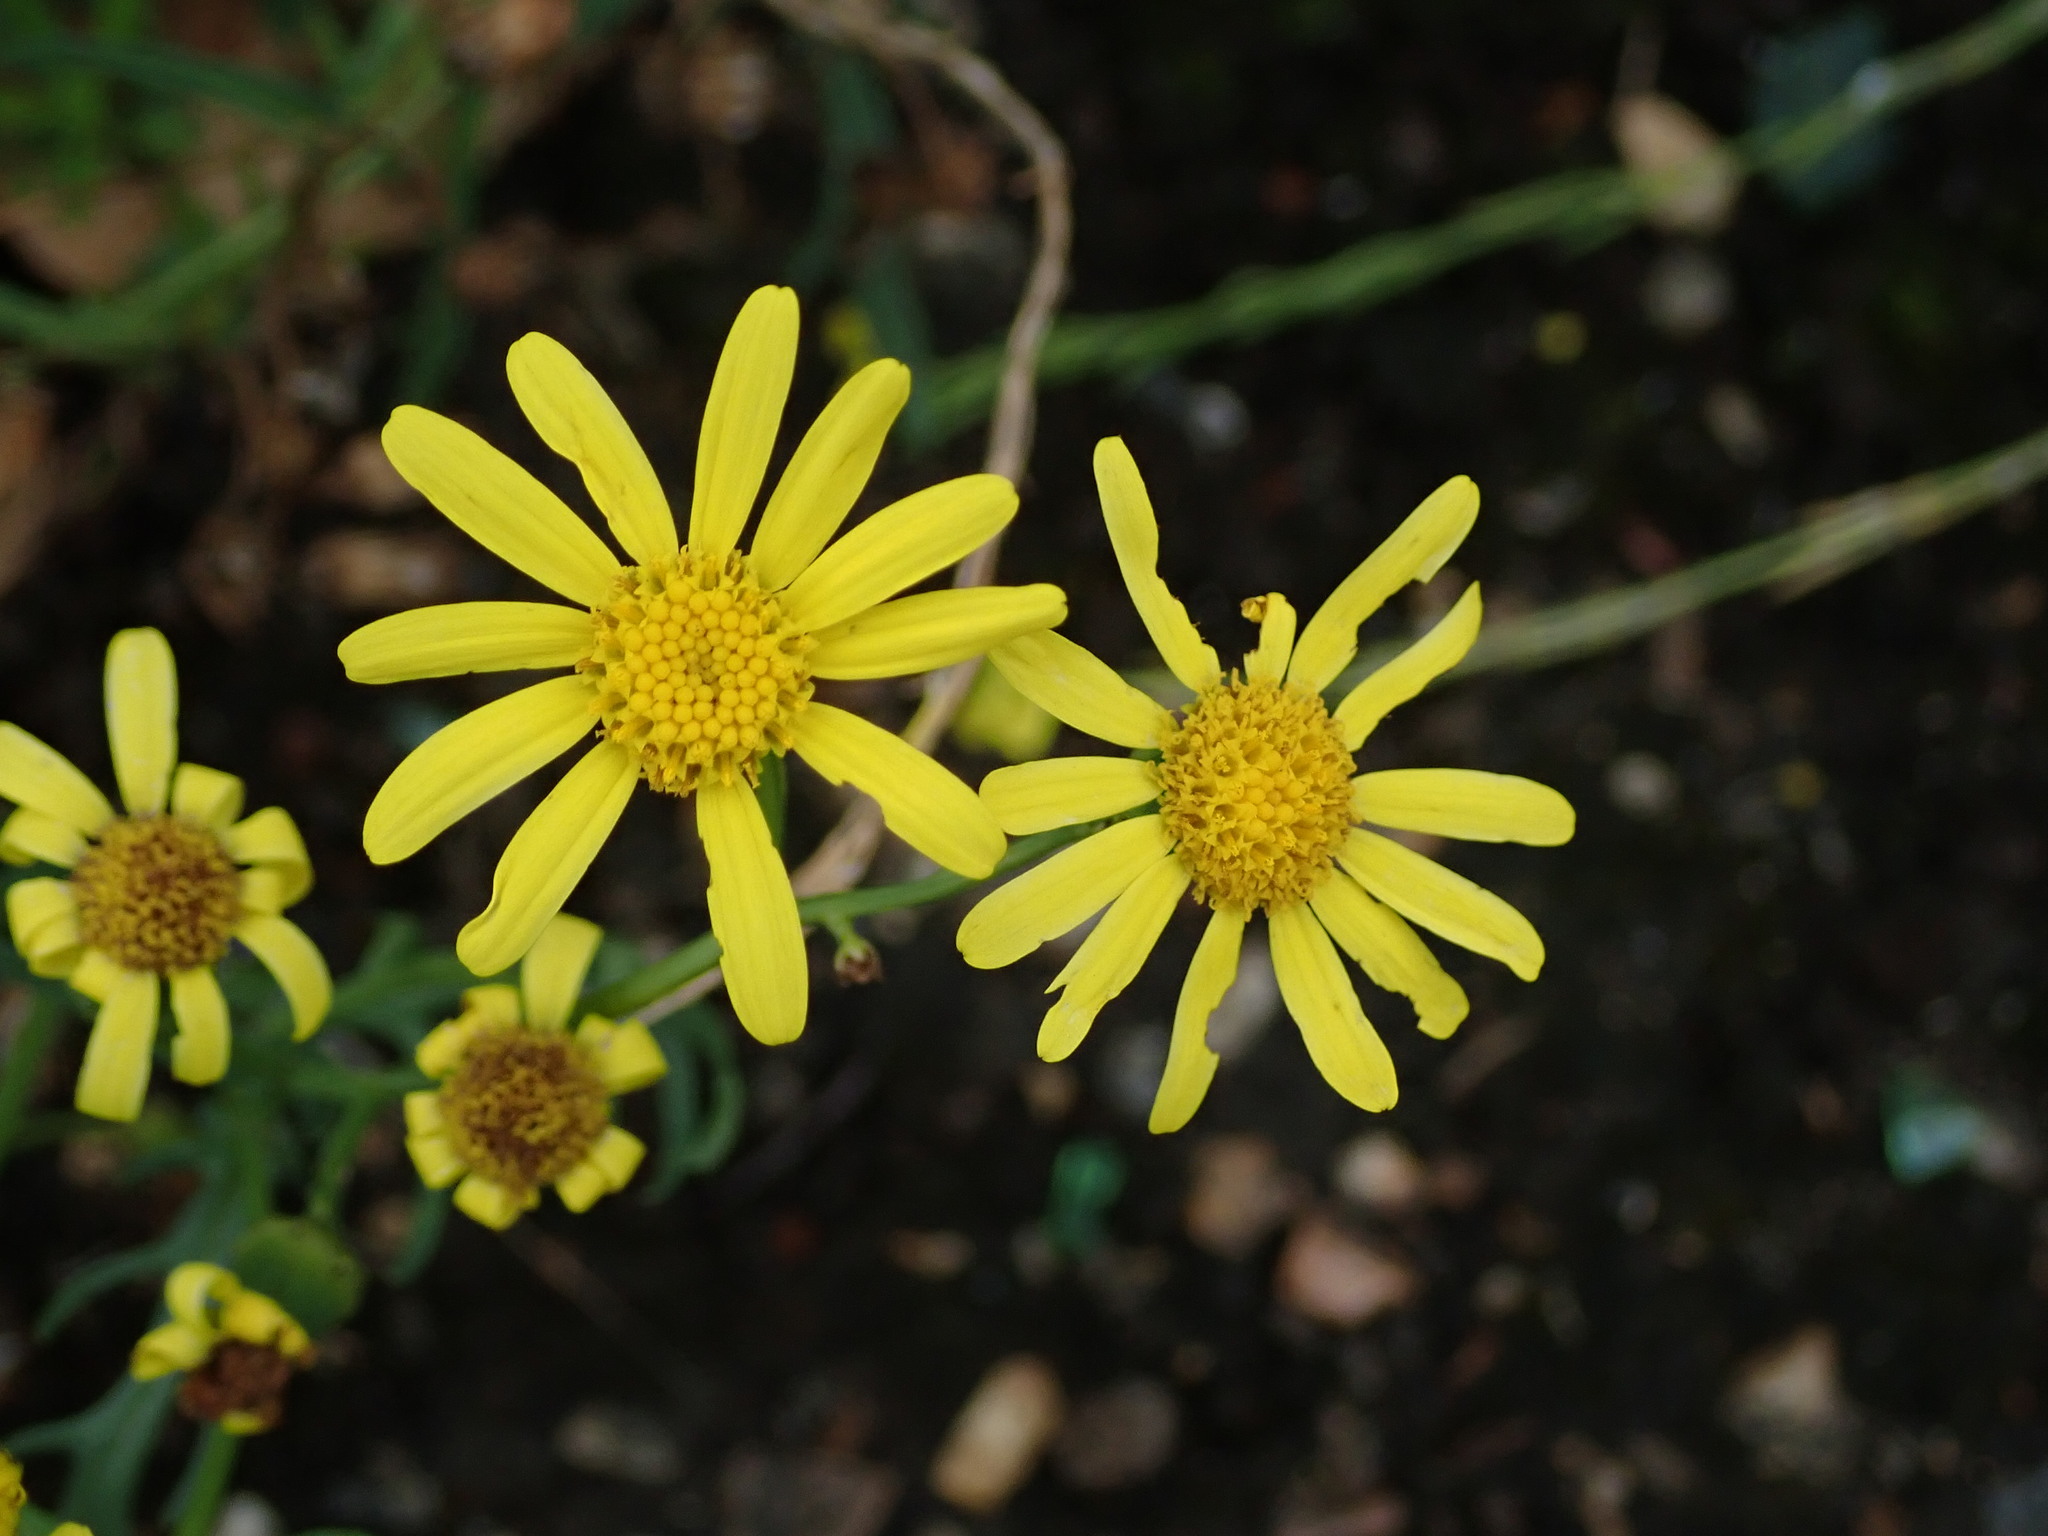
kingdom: Plantae
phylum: Tracheophyta
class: Magnoliopsida
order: Asterales
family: Asteraceae
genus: Senecio
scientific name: Senecio squalidus
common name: Oxford ragwort
